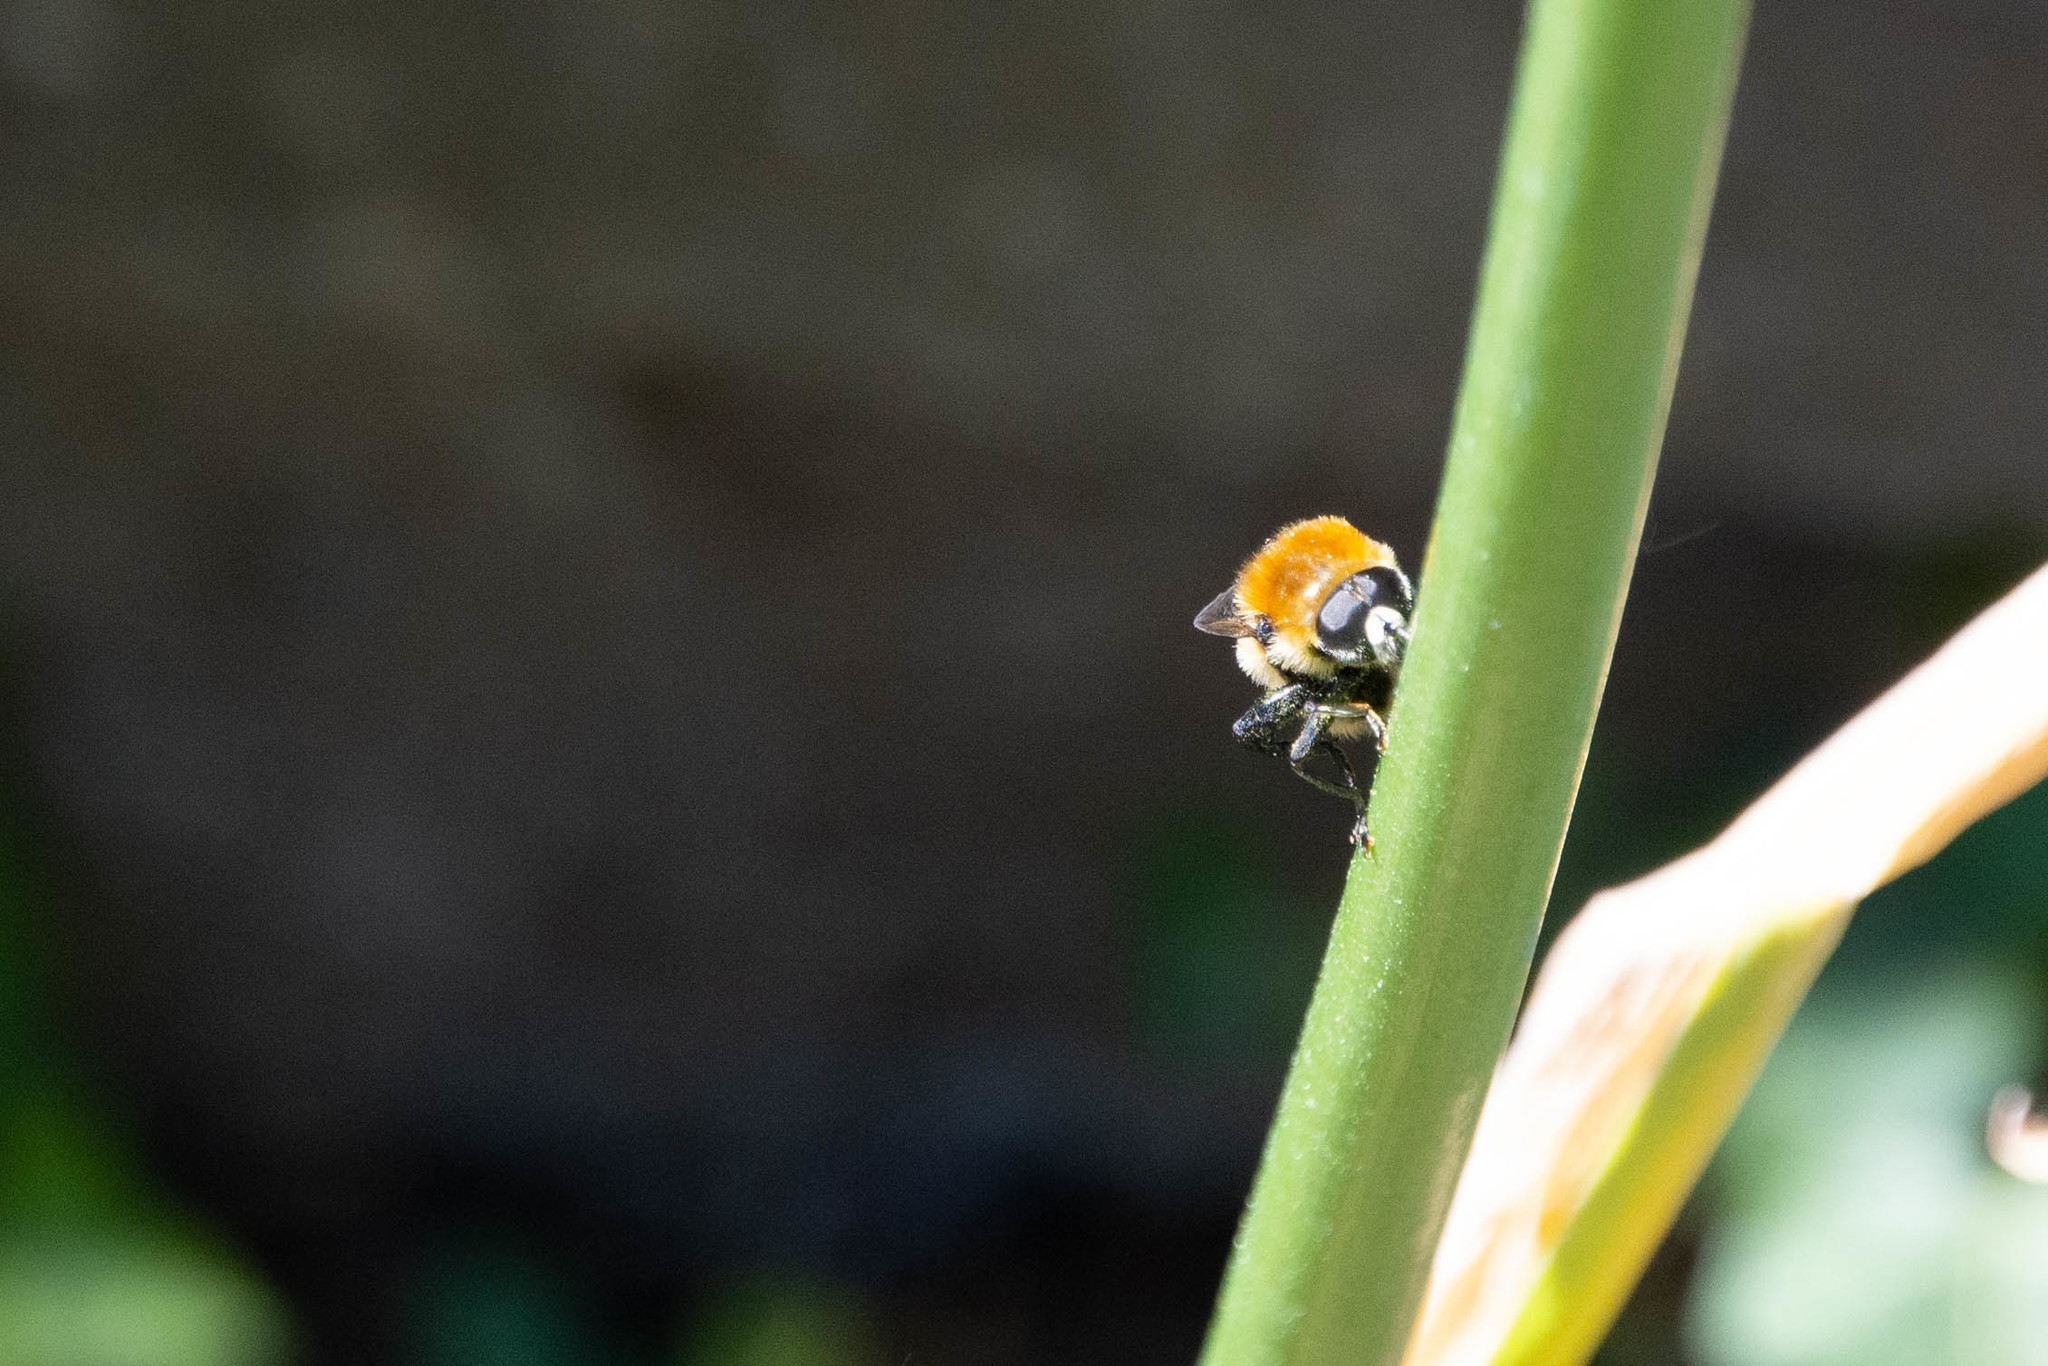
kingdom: Animalia
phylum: Arthropoda
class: Insecta
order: Diptera
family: Syrphidae
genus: Merodon
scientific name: Merodon equestris
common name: Greater bulb-fly
